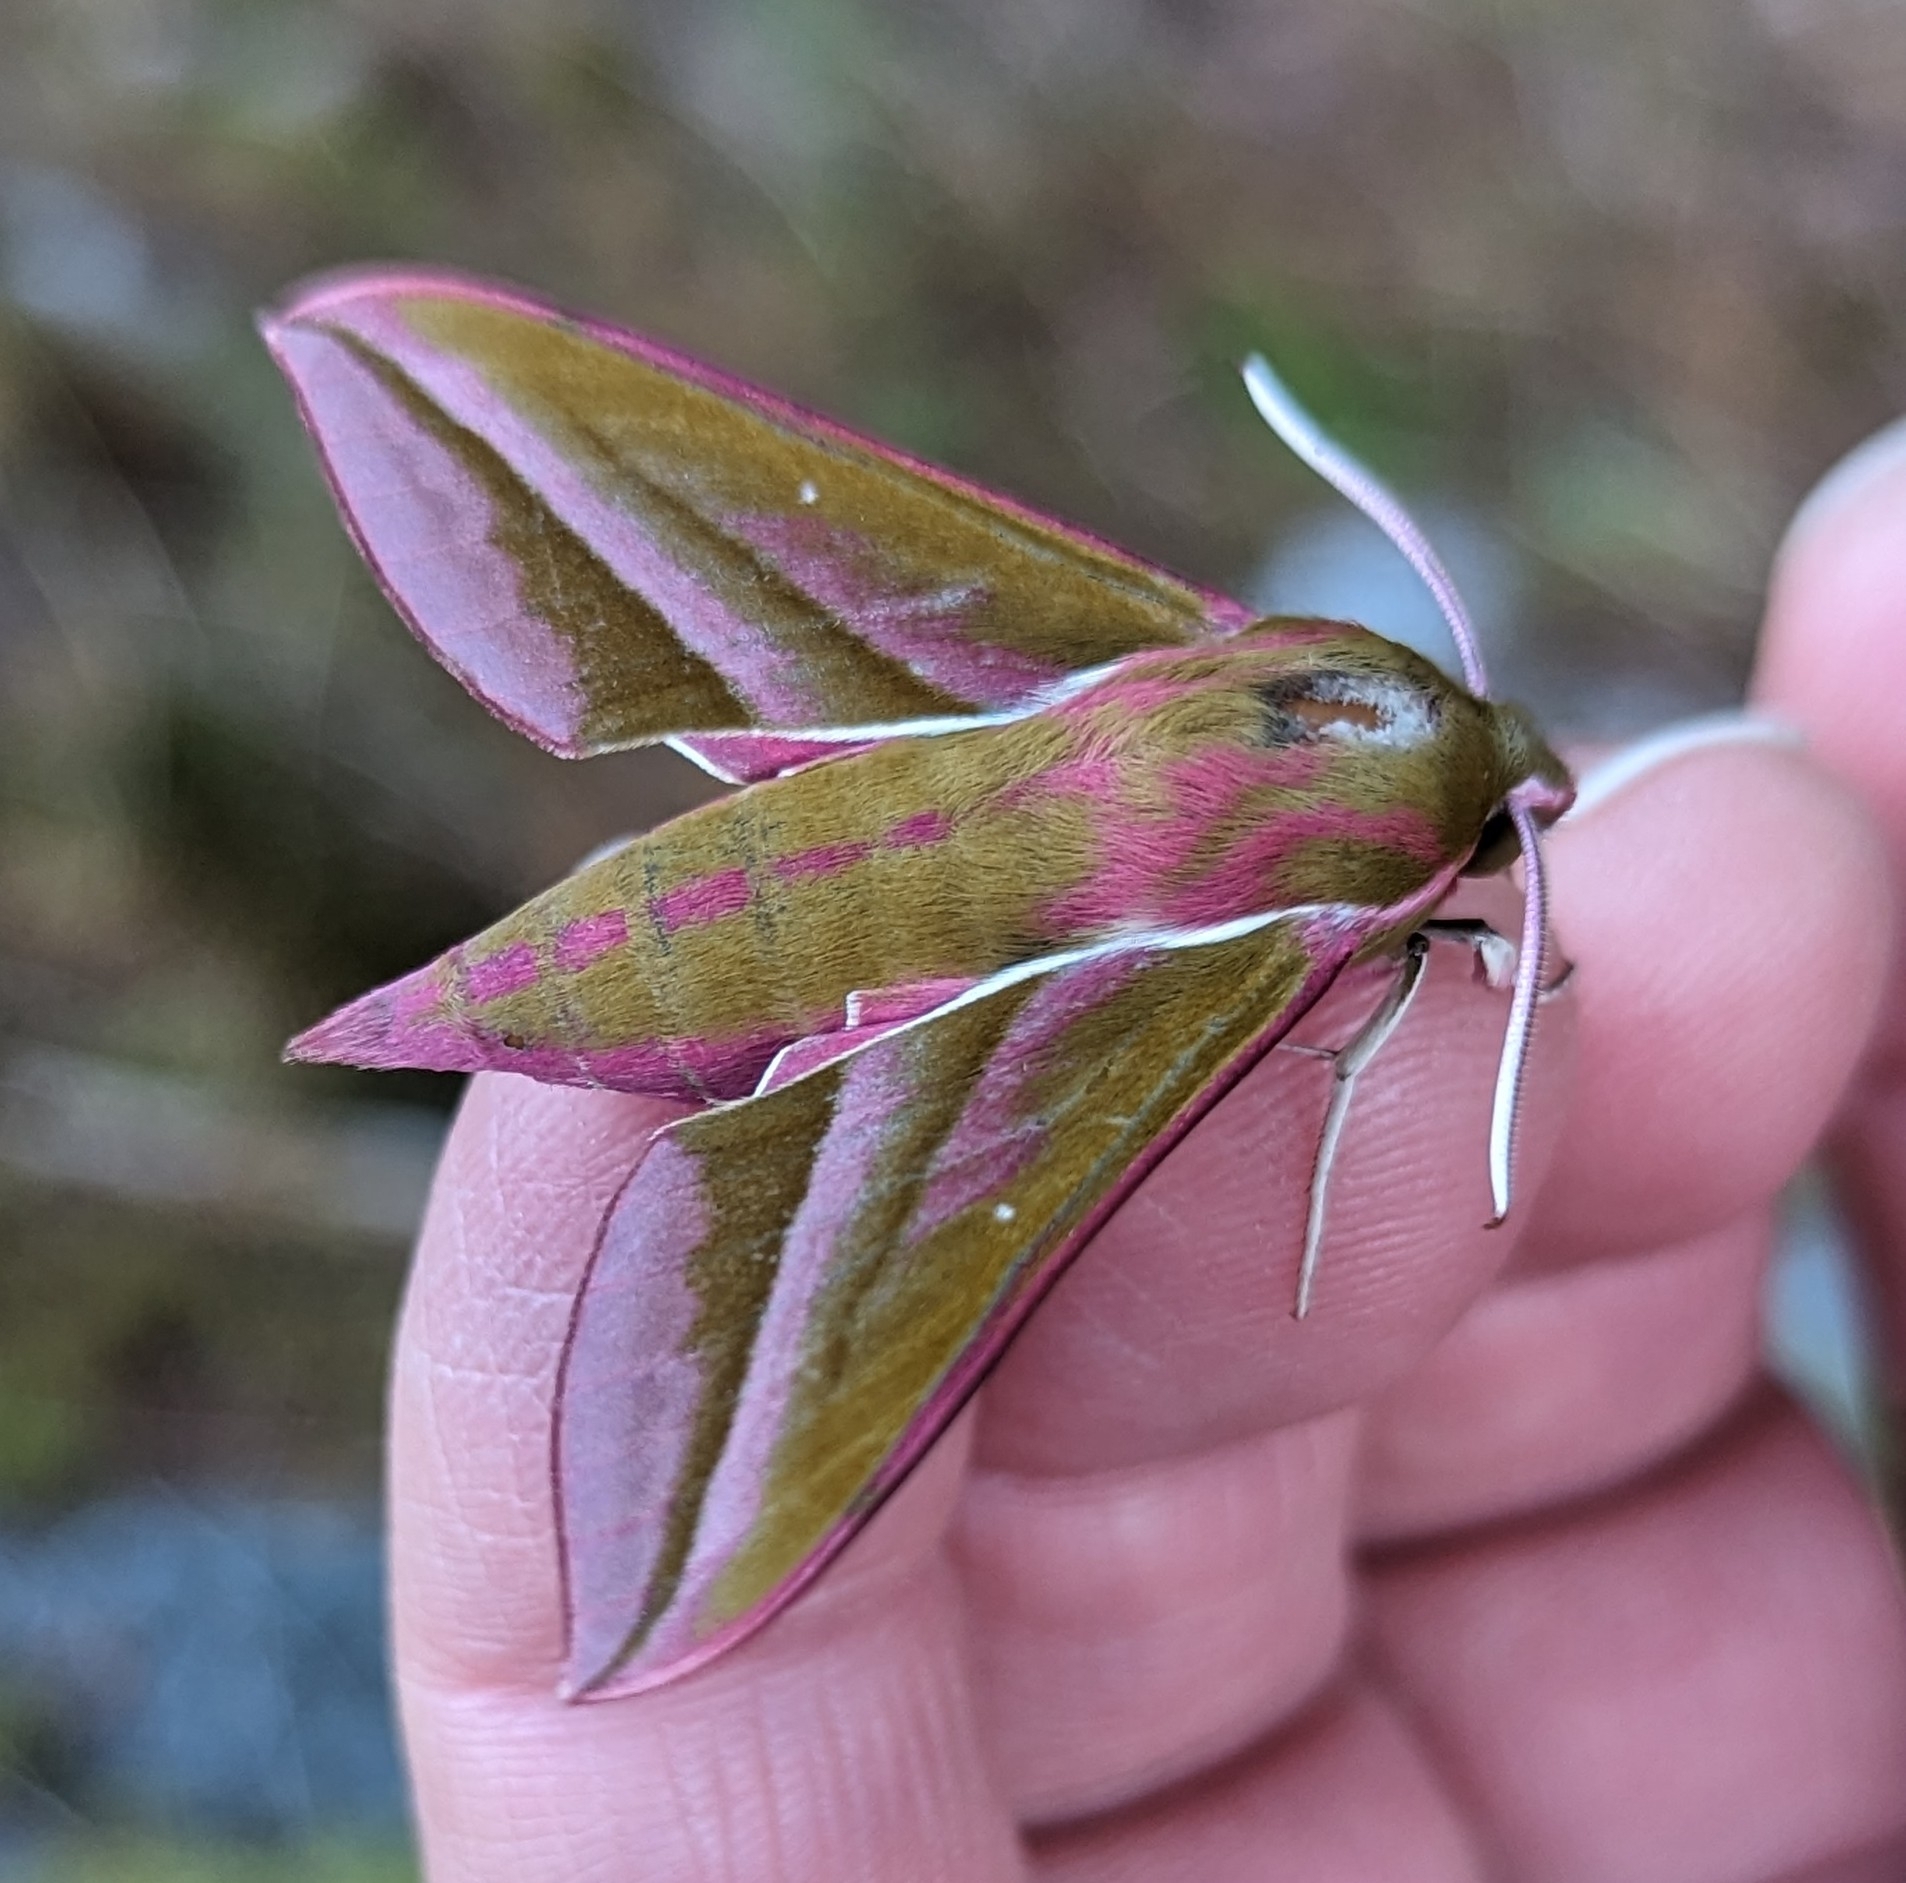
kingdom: Animalia
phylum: Arthropoda
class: Insecta
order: Lepidoptera
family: Sphingidae
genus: Deilephila
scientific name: Deilephila elpenor
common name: Elephant hawk-moth
